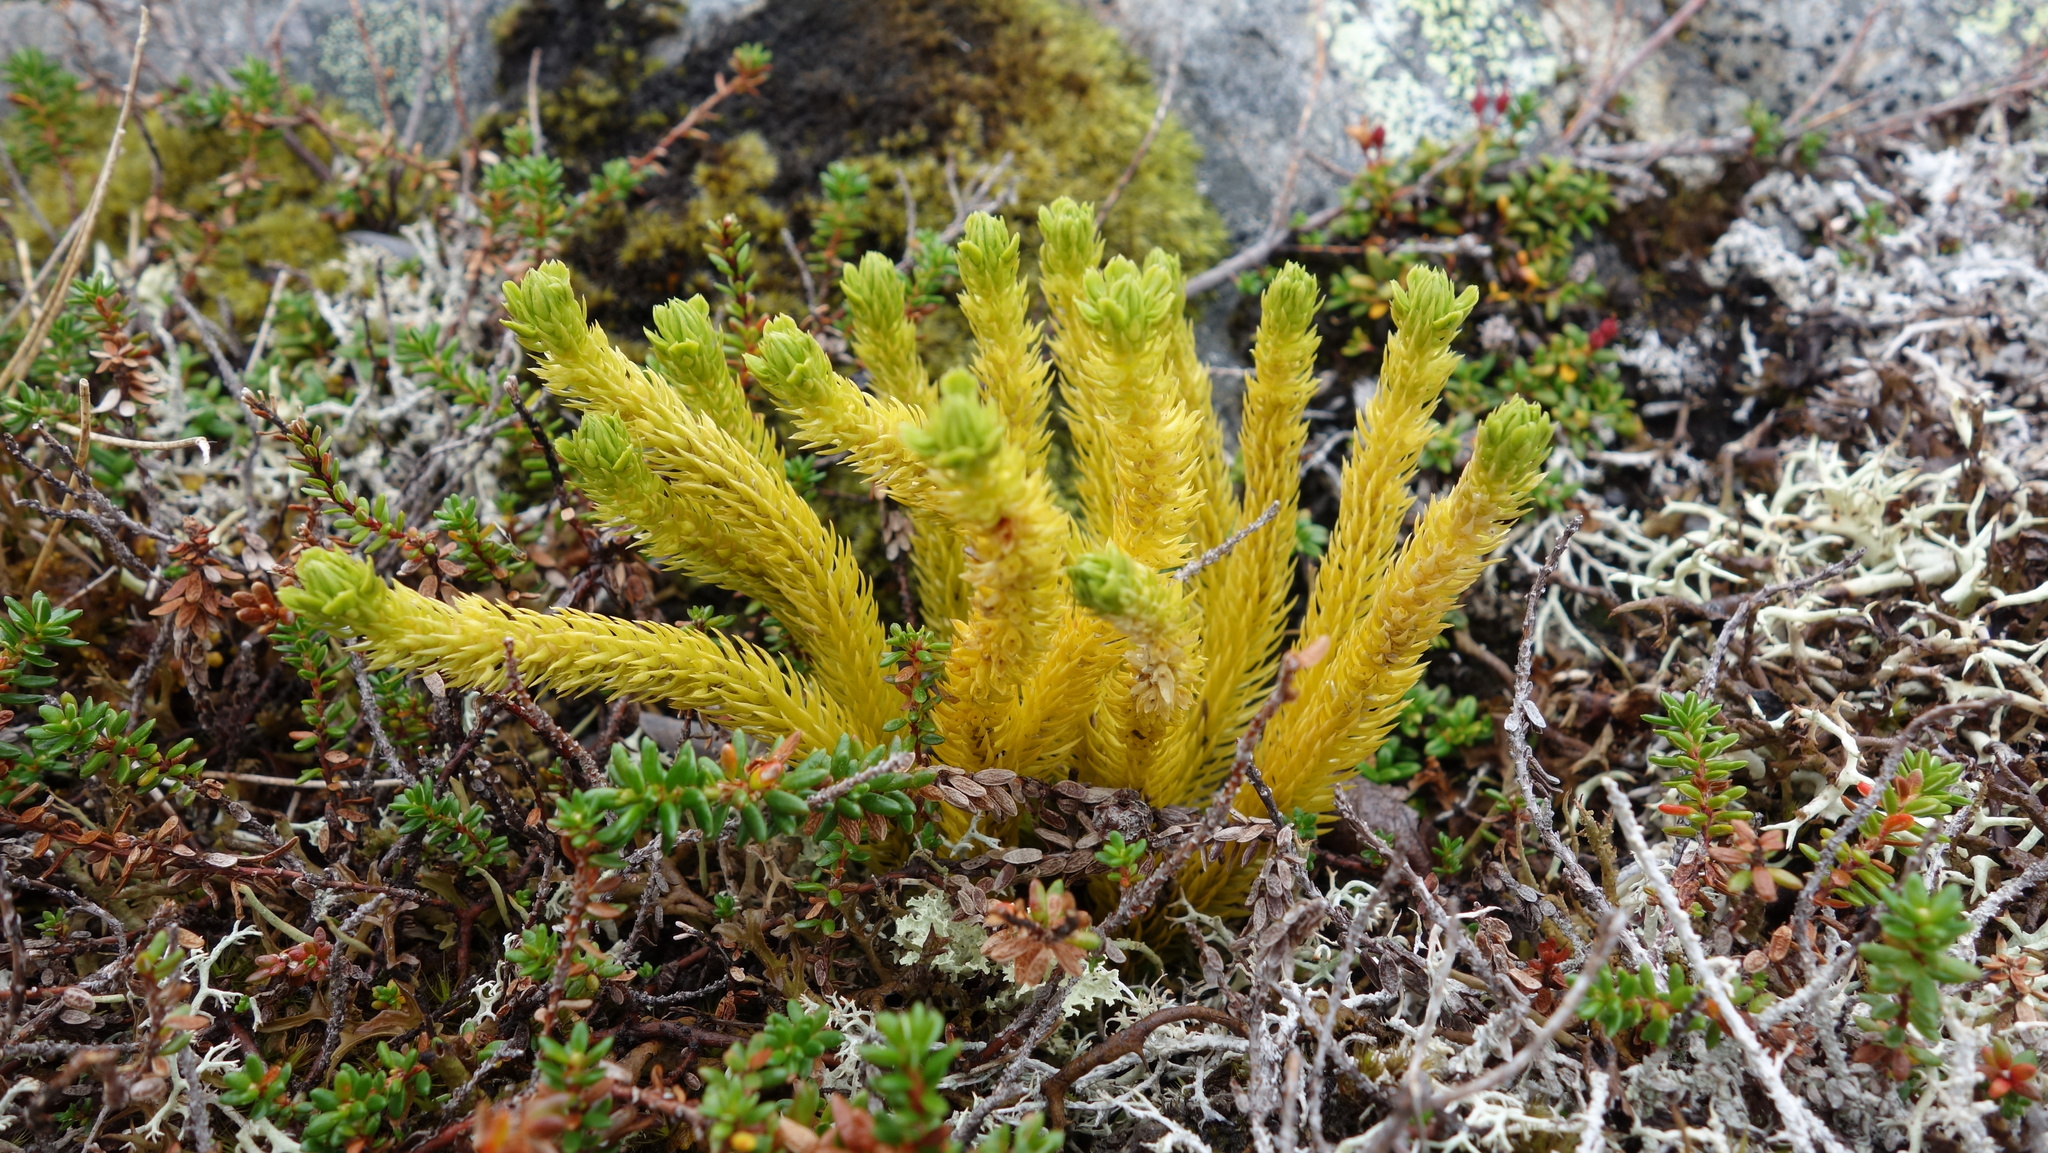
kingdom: Plantae
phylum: Tracheophyta
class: Lycopodiopsida
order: Lycopodiales
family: Lycopodiaceae
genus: Huperzia
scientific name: Huperzia selago
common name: Northern firmoss
